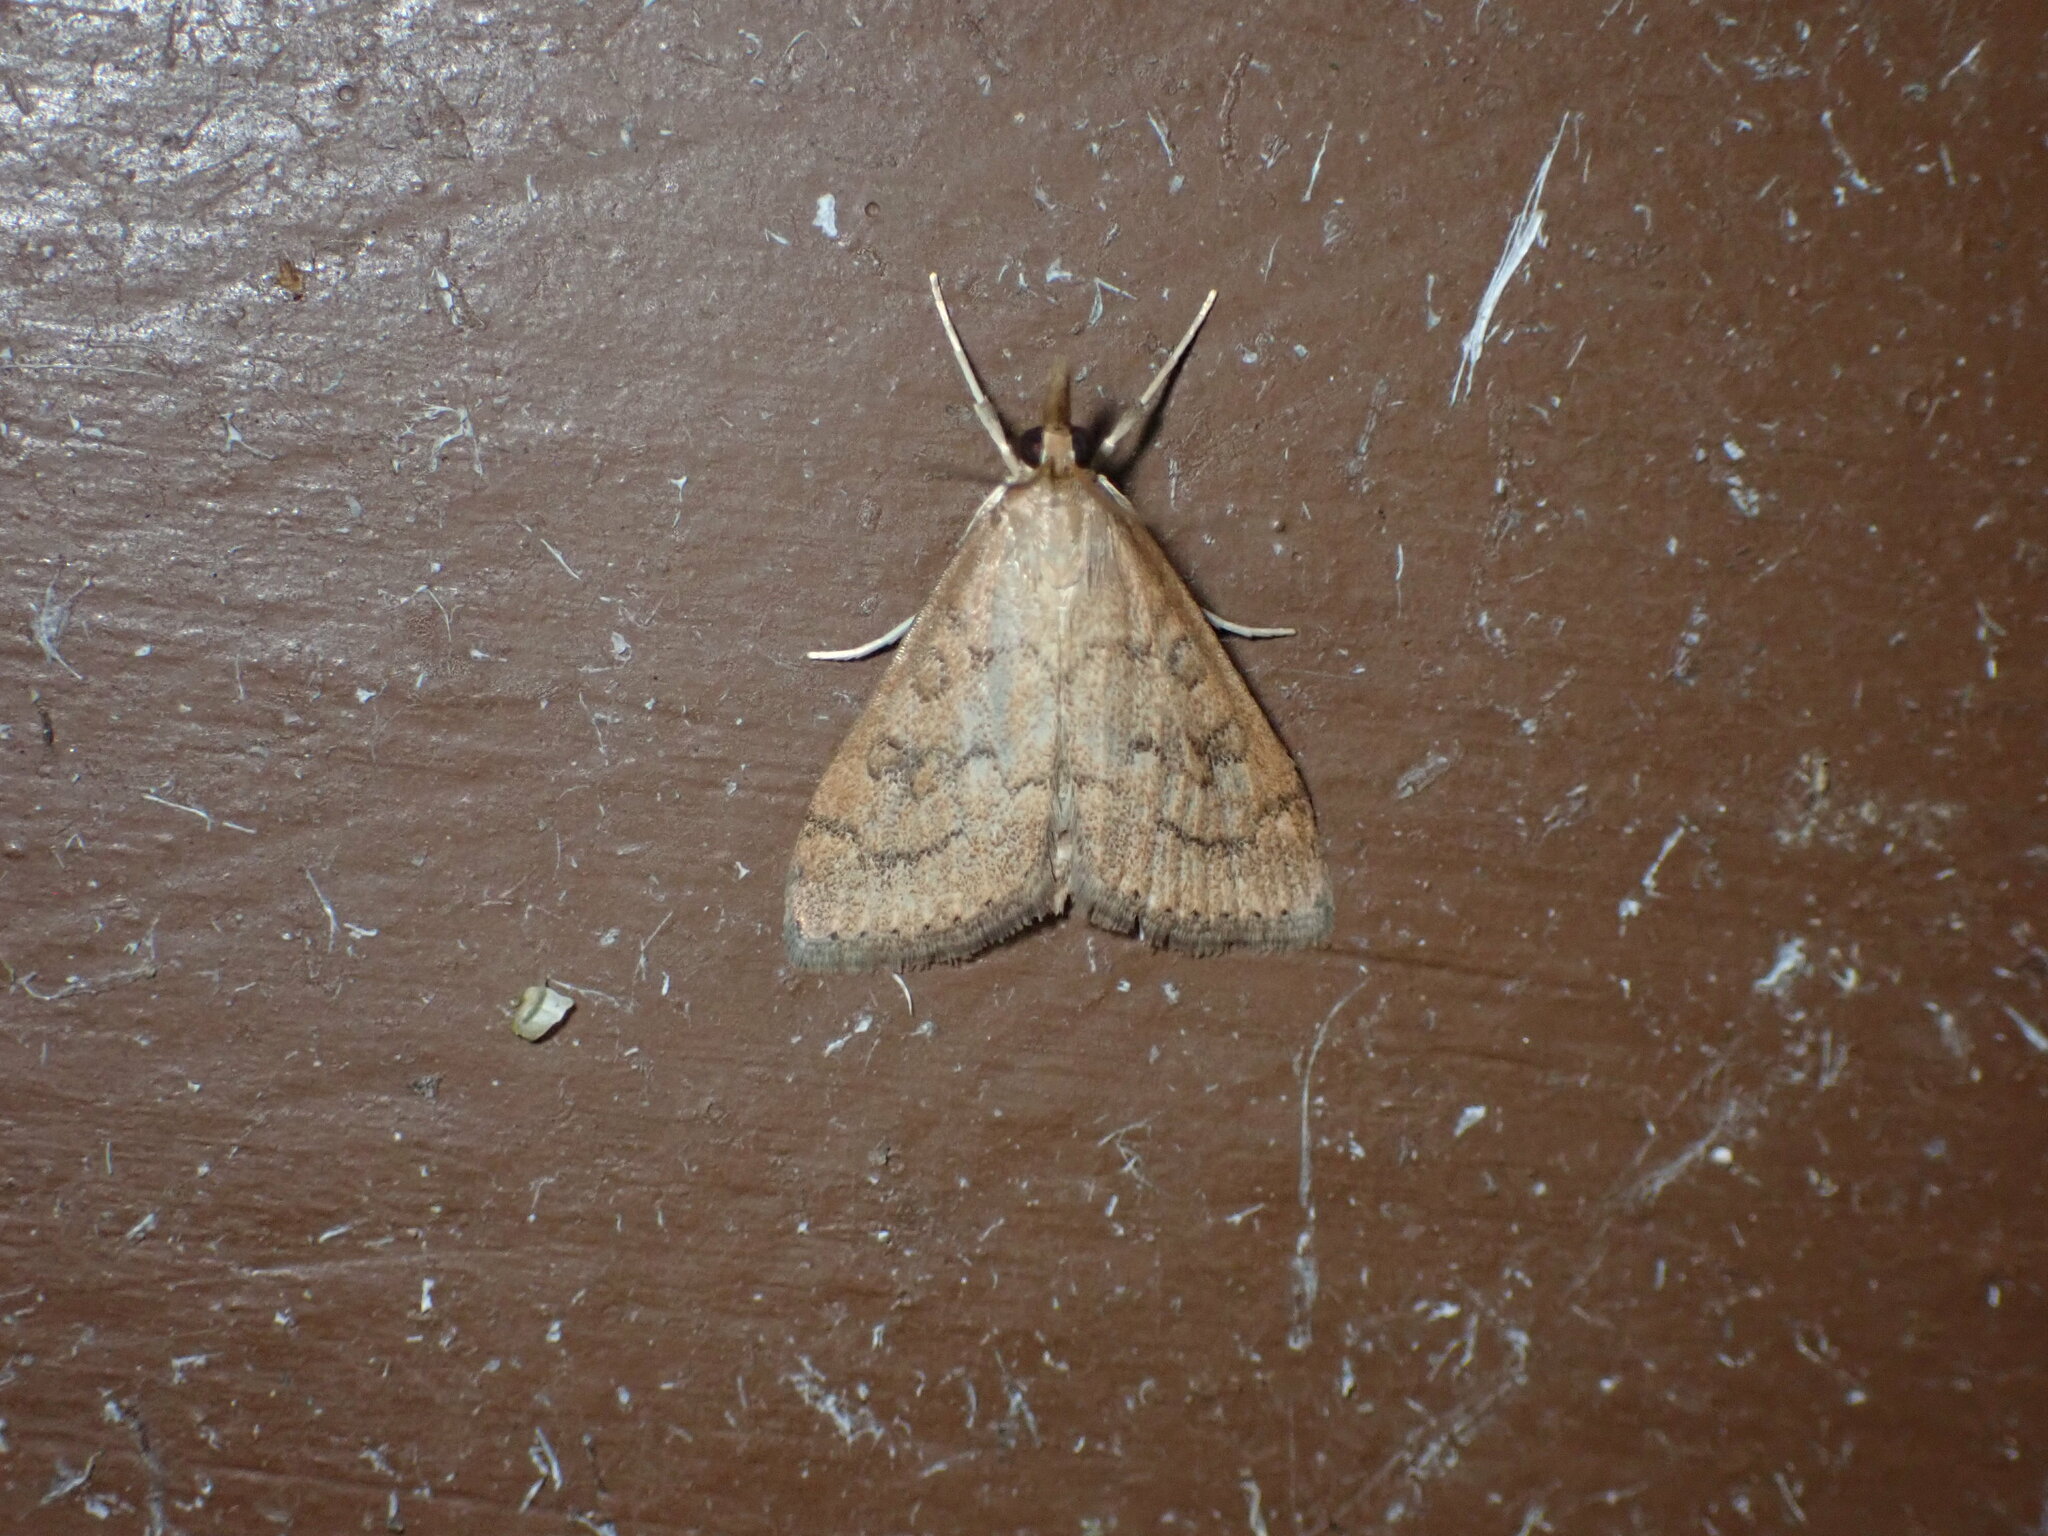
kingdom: Animalia
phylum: Arthropoda
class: Insecta
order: Lepidoptera
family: Crambidae
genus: Udea
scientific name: Udea rubigalis
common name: Celery leaftier moth
